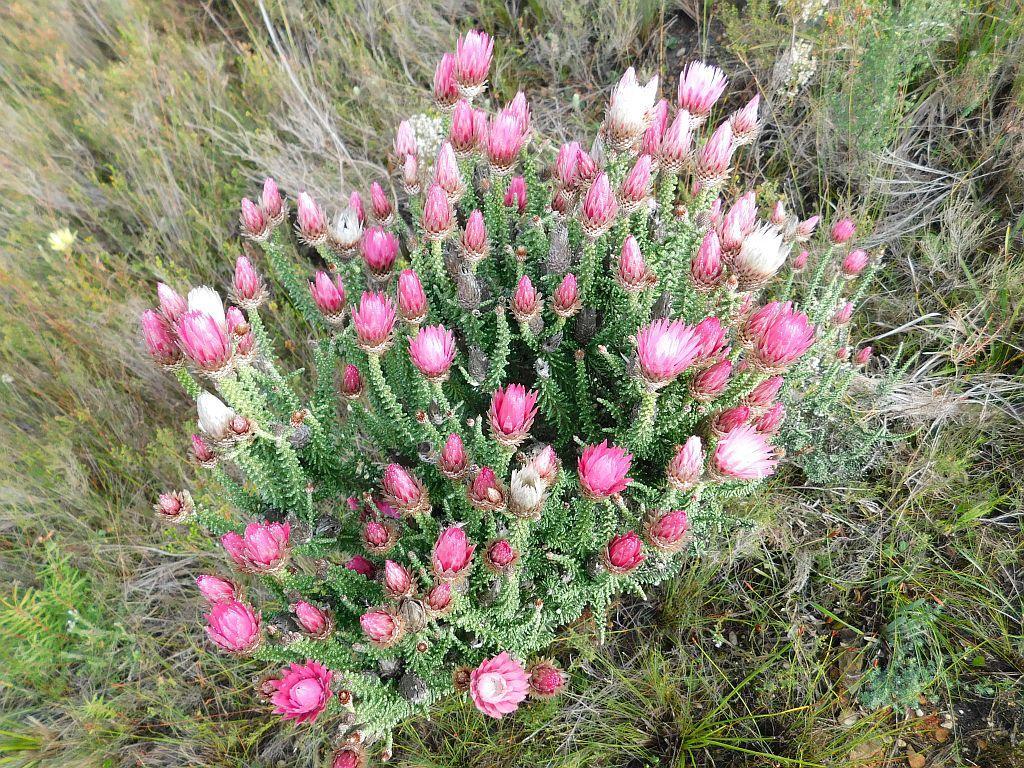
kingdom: Plantae
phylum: Tracheophyta
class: Magnoliopsida
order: Asterales
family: Asteraceae
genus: Phaenocoma
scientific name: Phaenocoma prolifera
